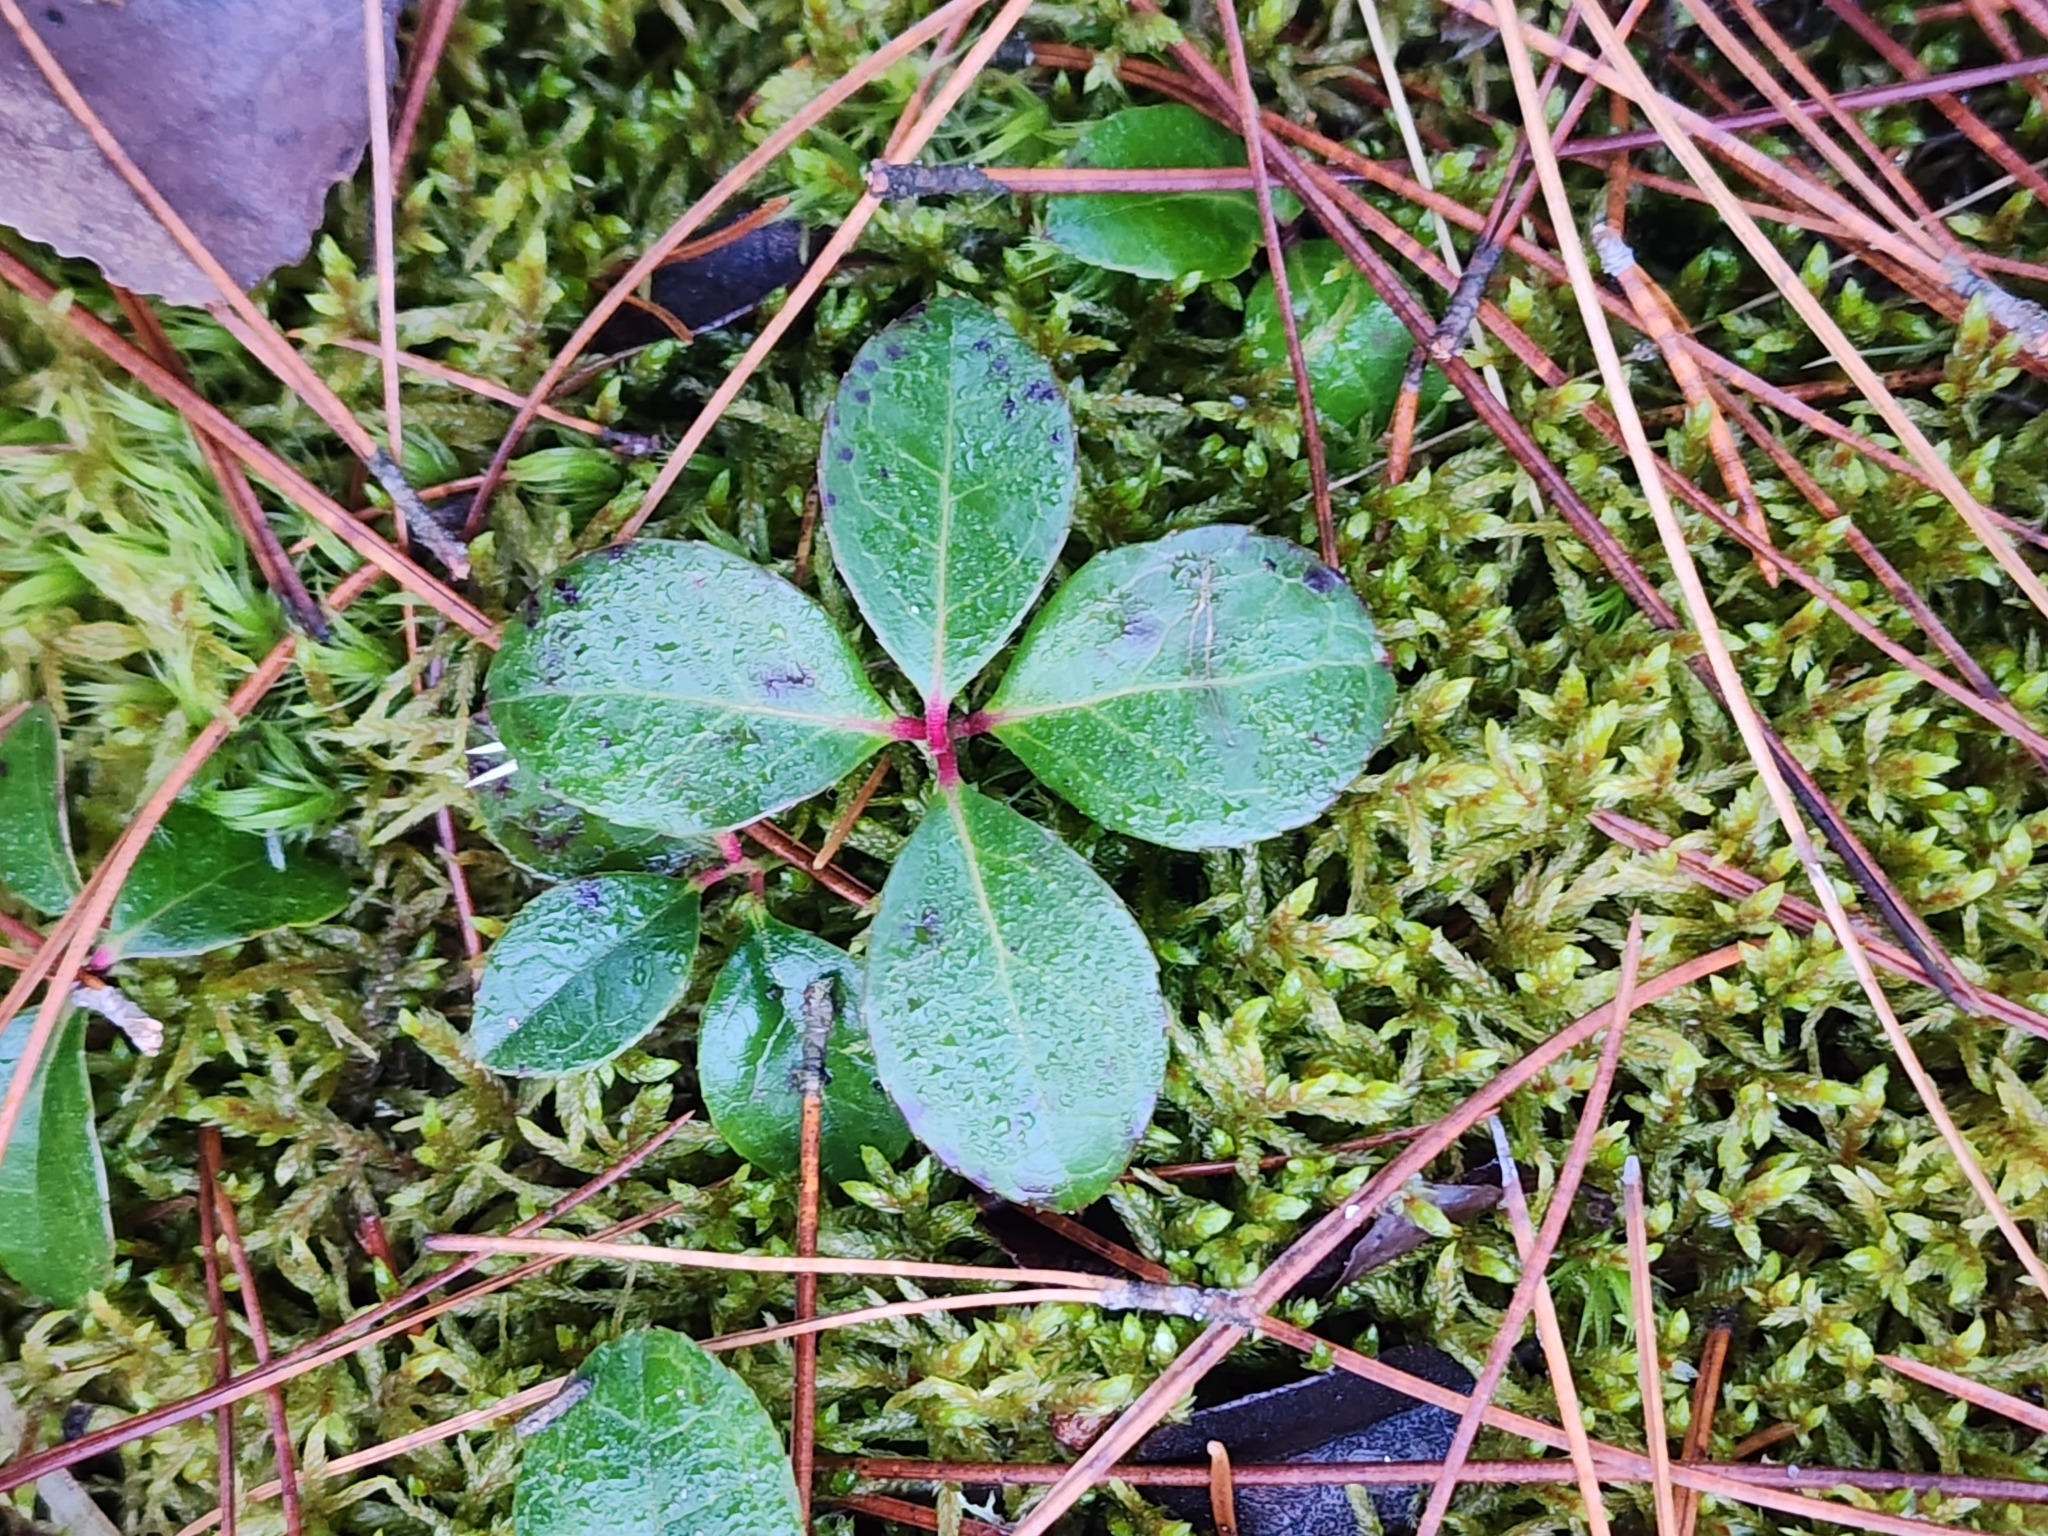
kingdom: Plantae
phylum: Tracheophyta
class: Magnoliopsida
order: Ericales
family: Ericaceae
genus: Gaultheria
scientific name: Gaultheria procumbens
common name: Checkerberry
